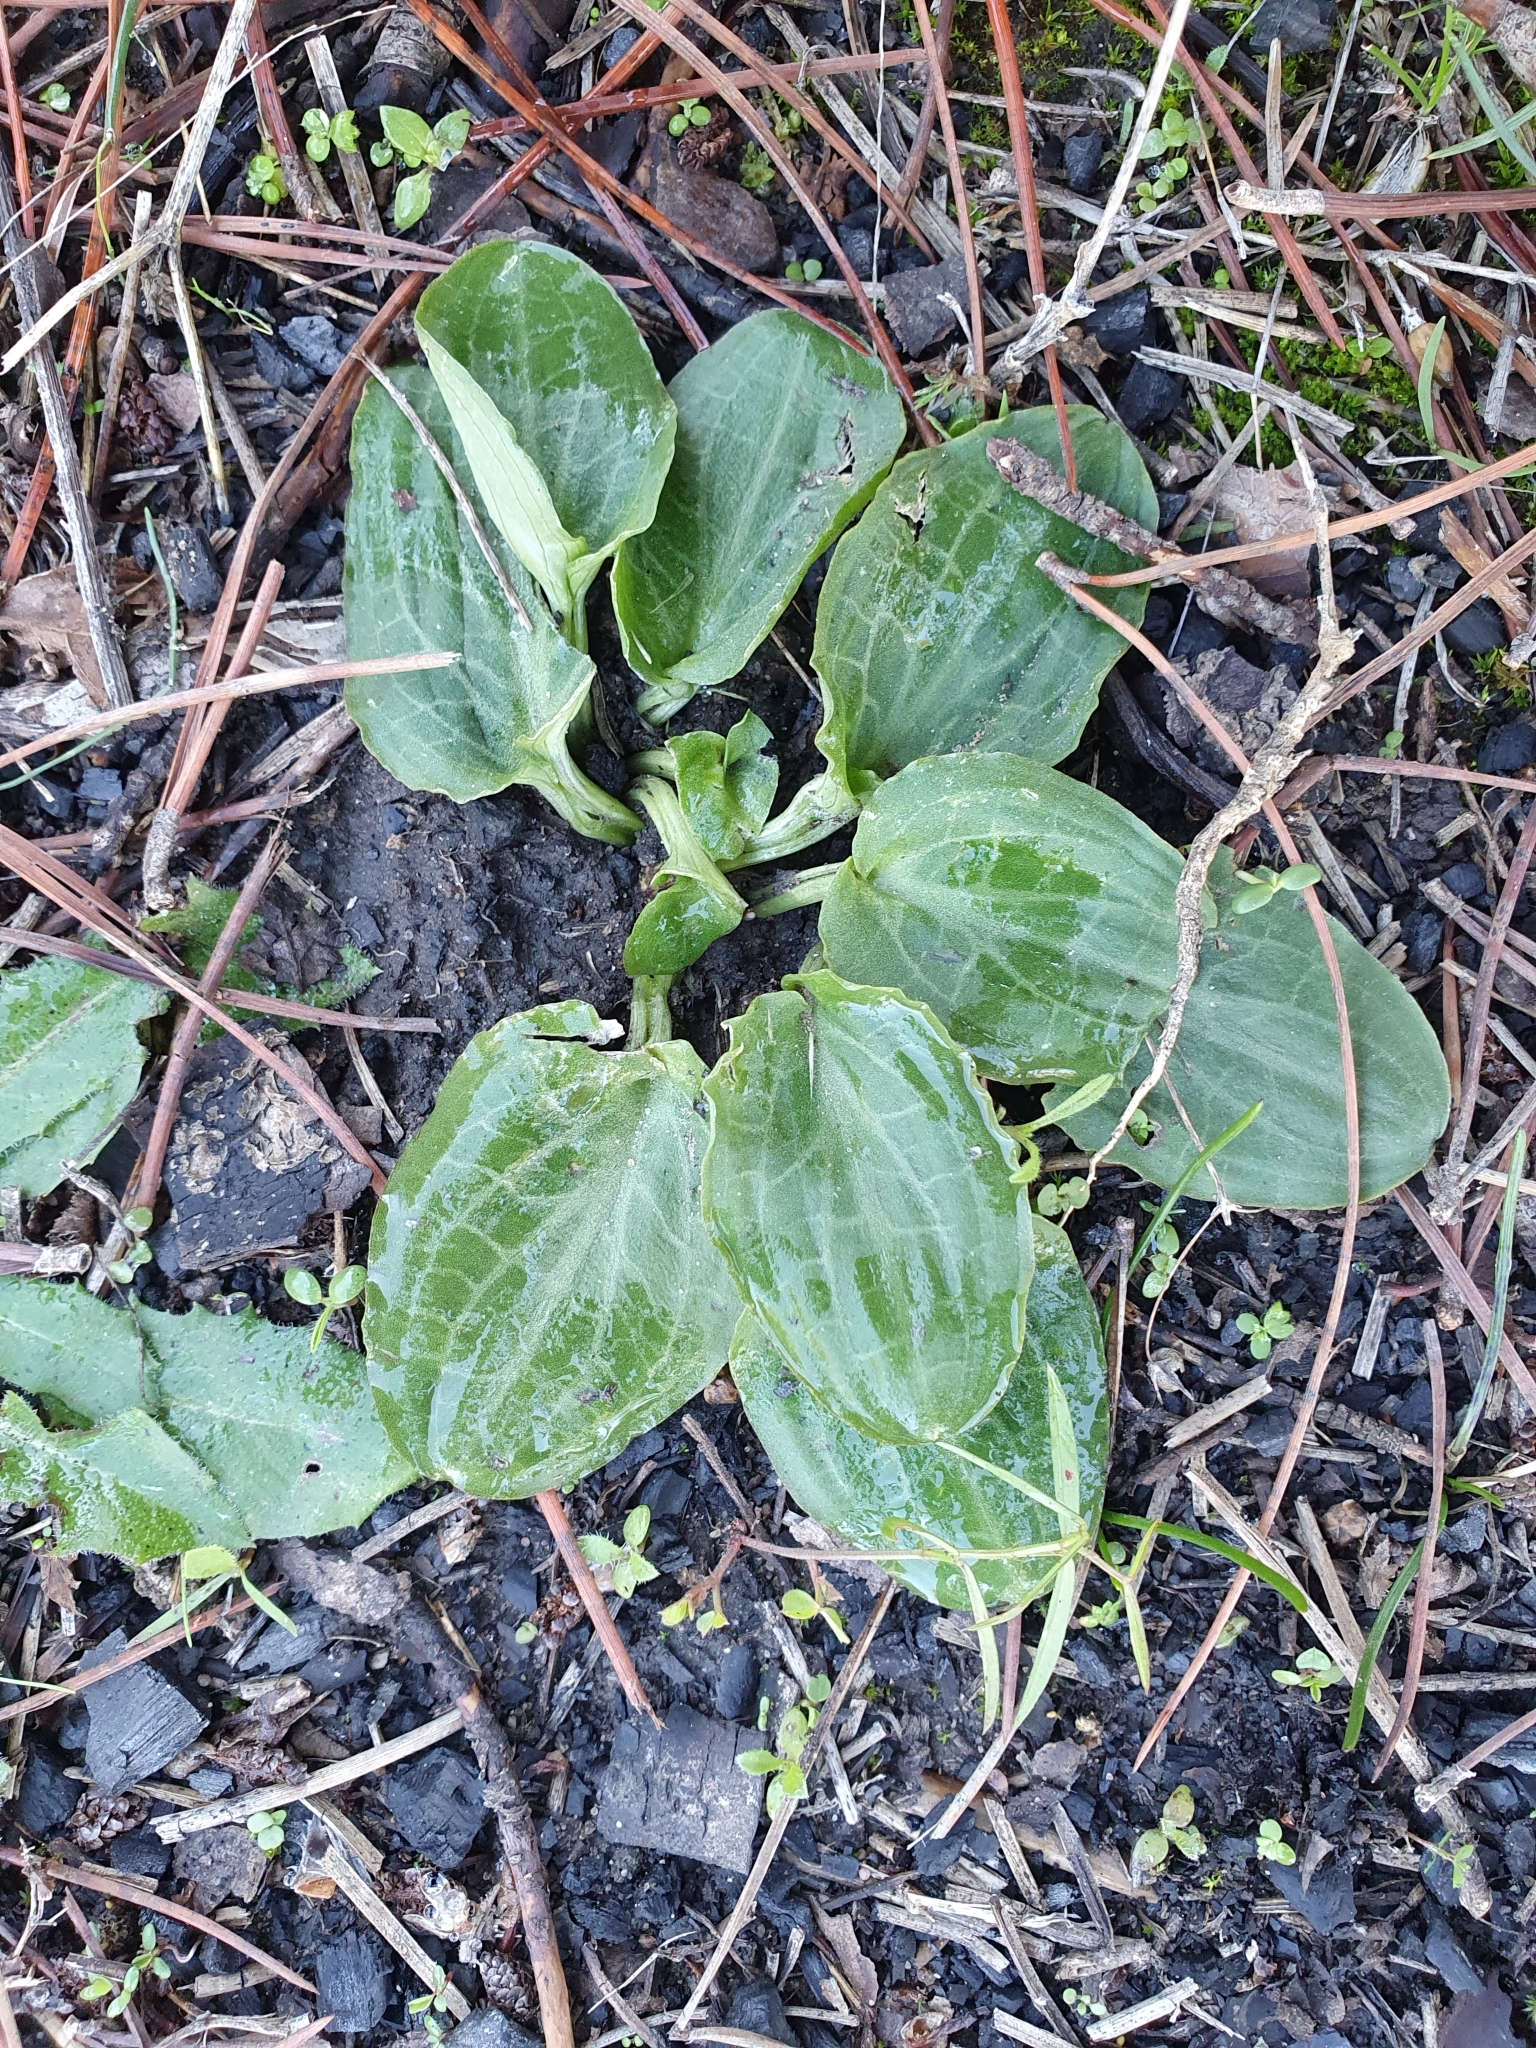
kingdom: Plantae
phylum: Tracheophyta
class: Liliopsida
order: Alismatales
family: Araceae
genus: Ambrosina
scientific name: Ambrosina bassii
